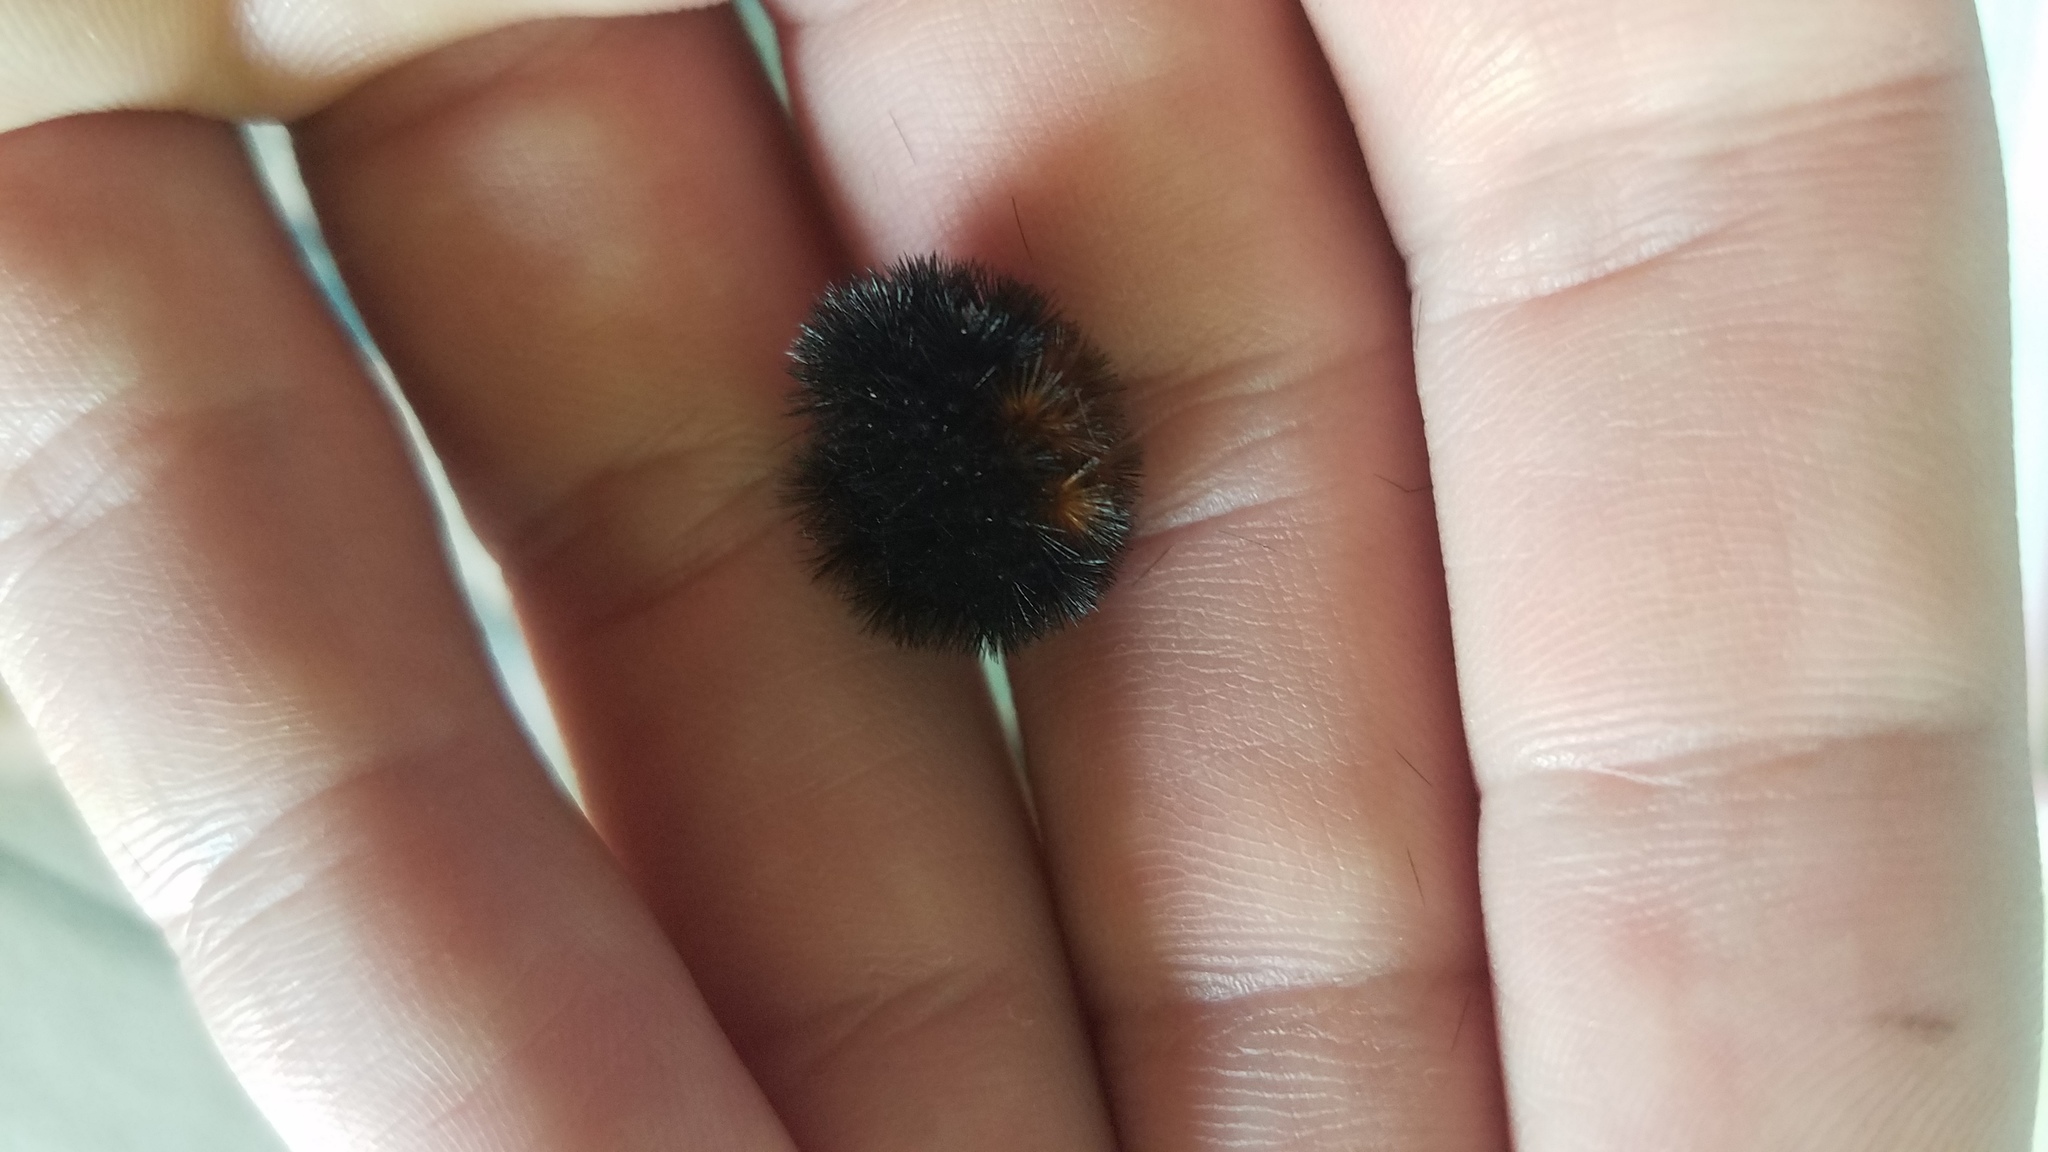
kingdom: Animalia
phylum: Arthropoda
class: Insecta
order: Lepidoptera
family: Erebidae
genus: Pyrrharctia
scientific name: Pyrrharctia isabella
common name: Isabella tiger moth
